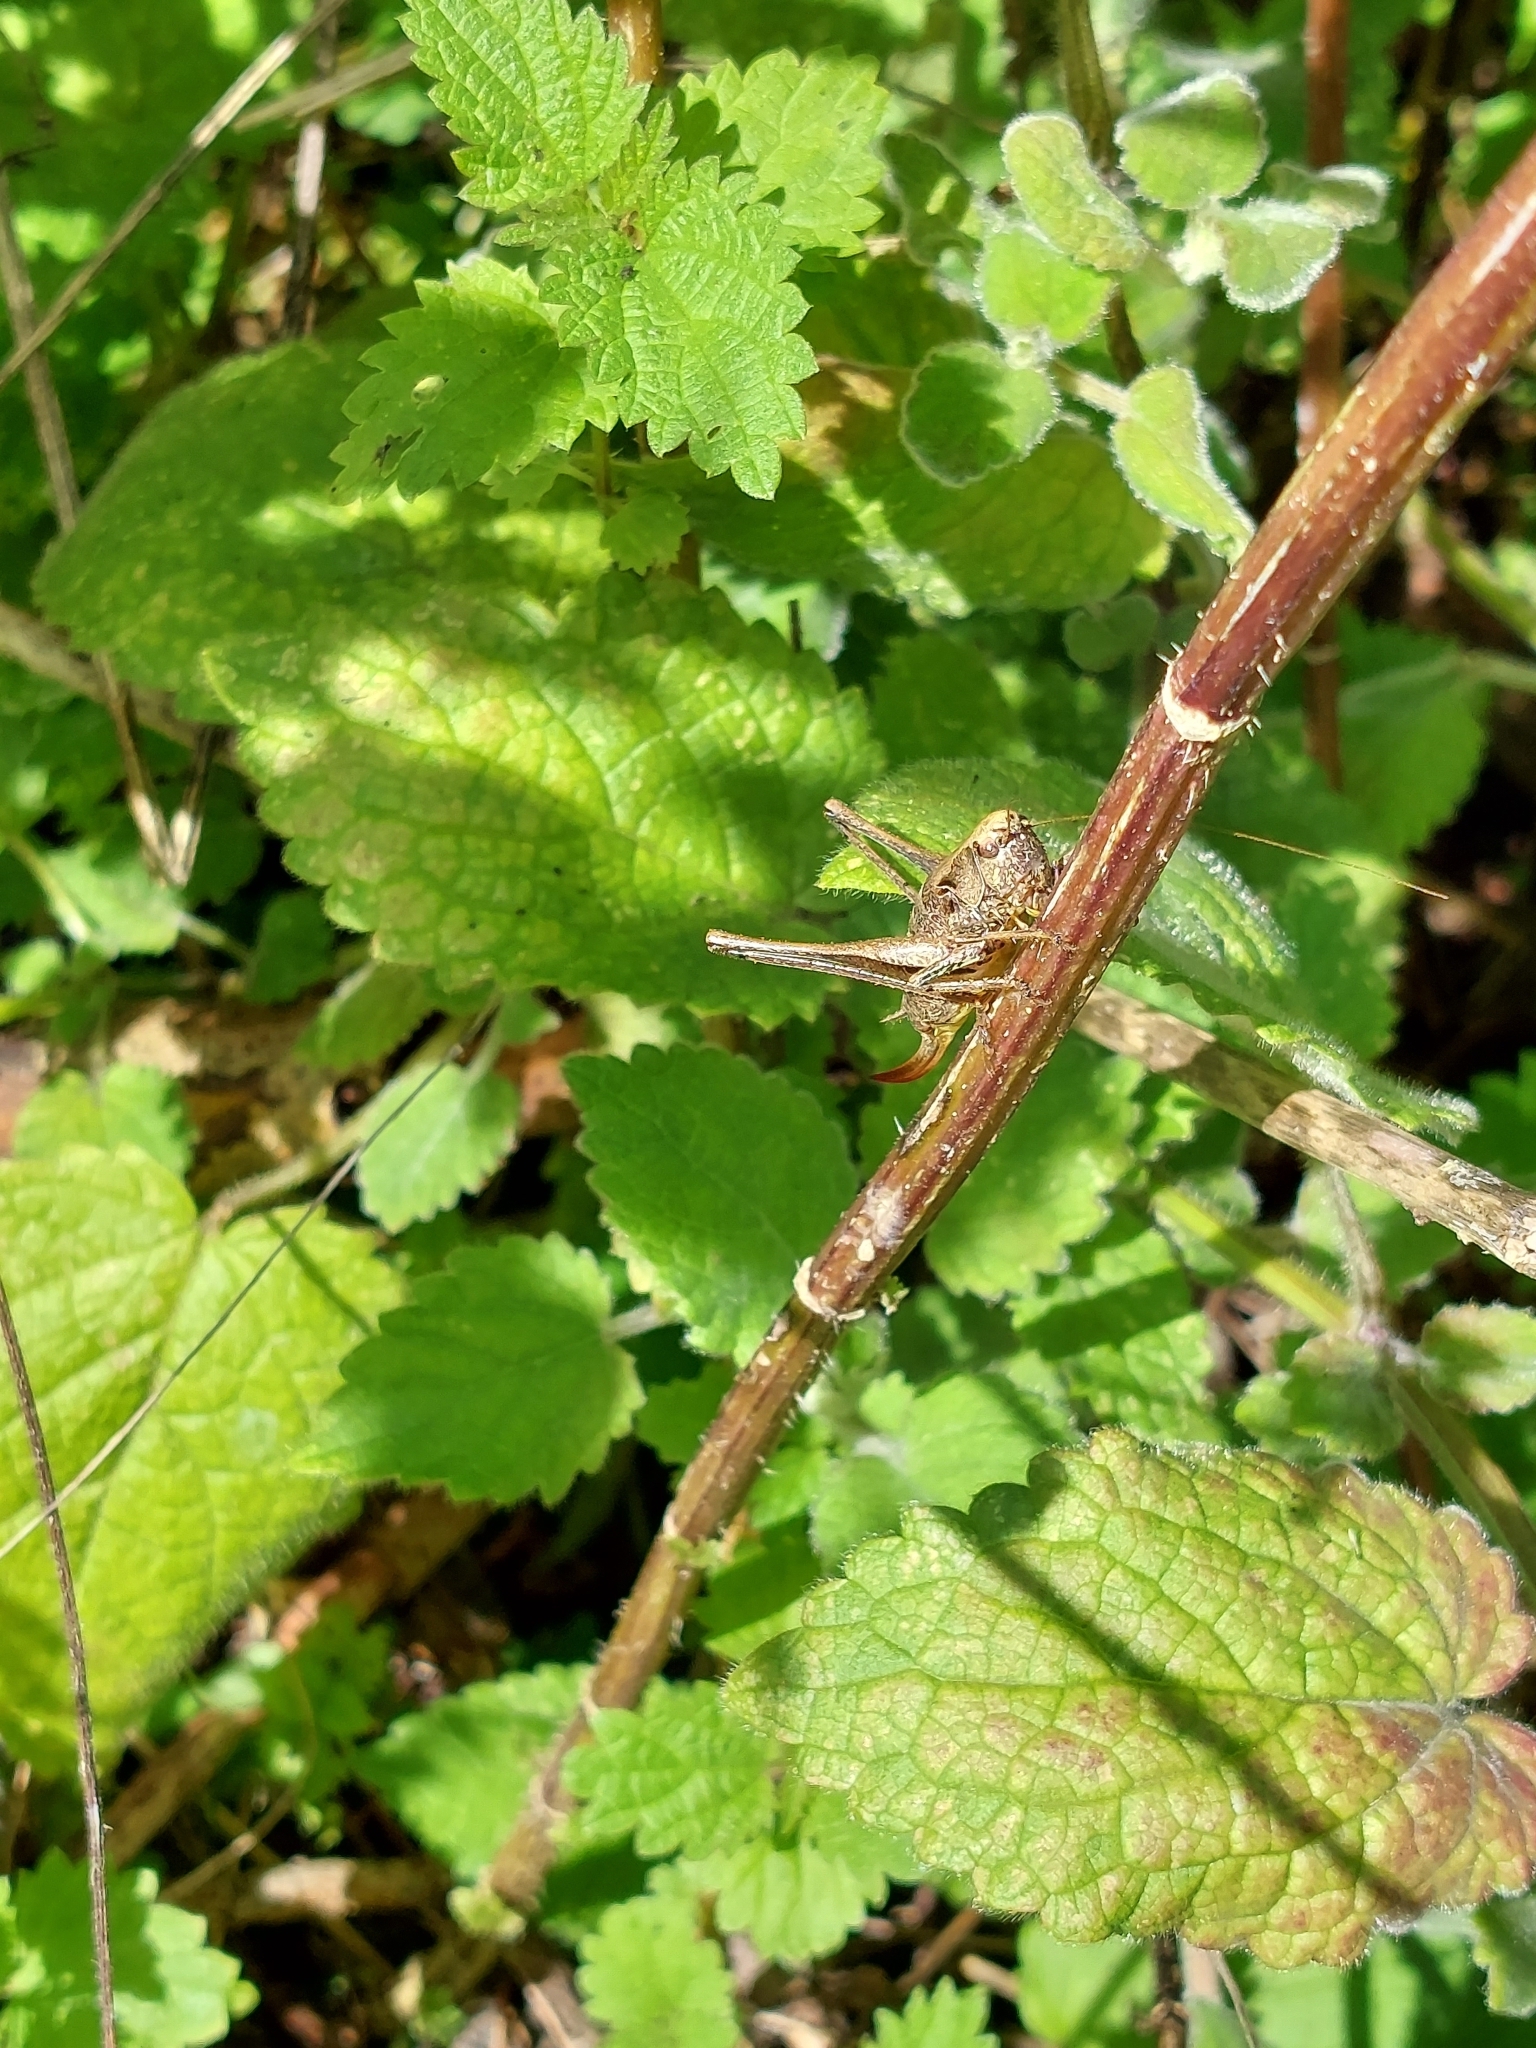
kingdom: Animalia
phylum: Arthropoda
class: Insecta
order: Orthoptera
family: Tettigoniidae
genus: Pholidoptera
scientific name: Pholidoptera griseoaptera
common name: Dark bush-cricket
